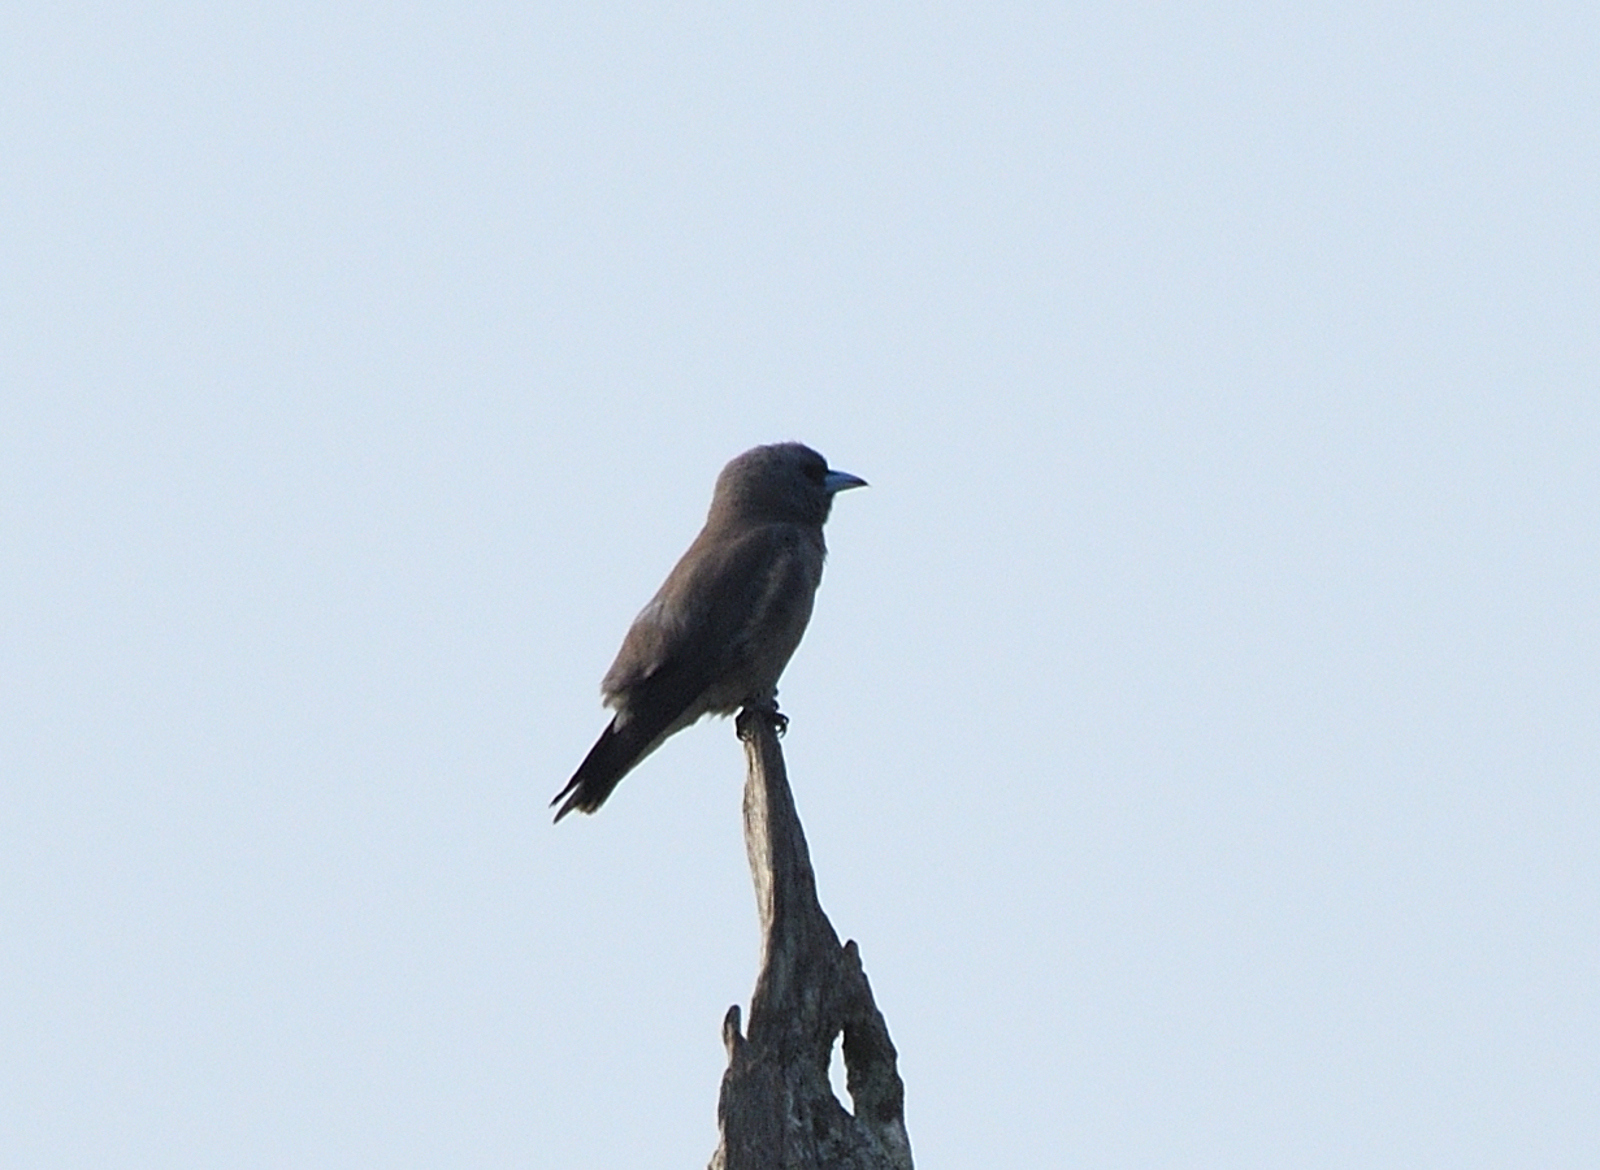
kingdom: Animalia
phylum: Chordata
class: Aves
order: Passeriformes
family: Artamidae
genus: Artamus
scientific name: Artamus fuscus
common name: Ashy woodswallow
